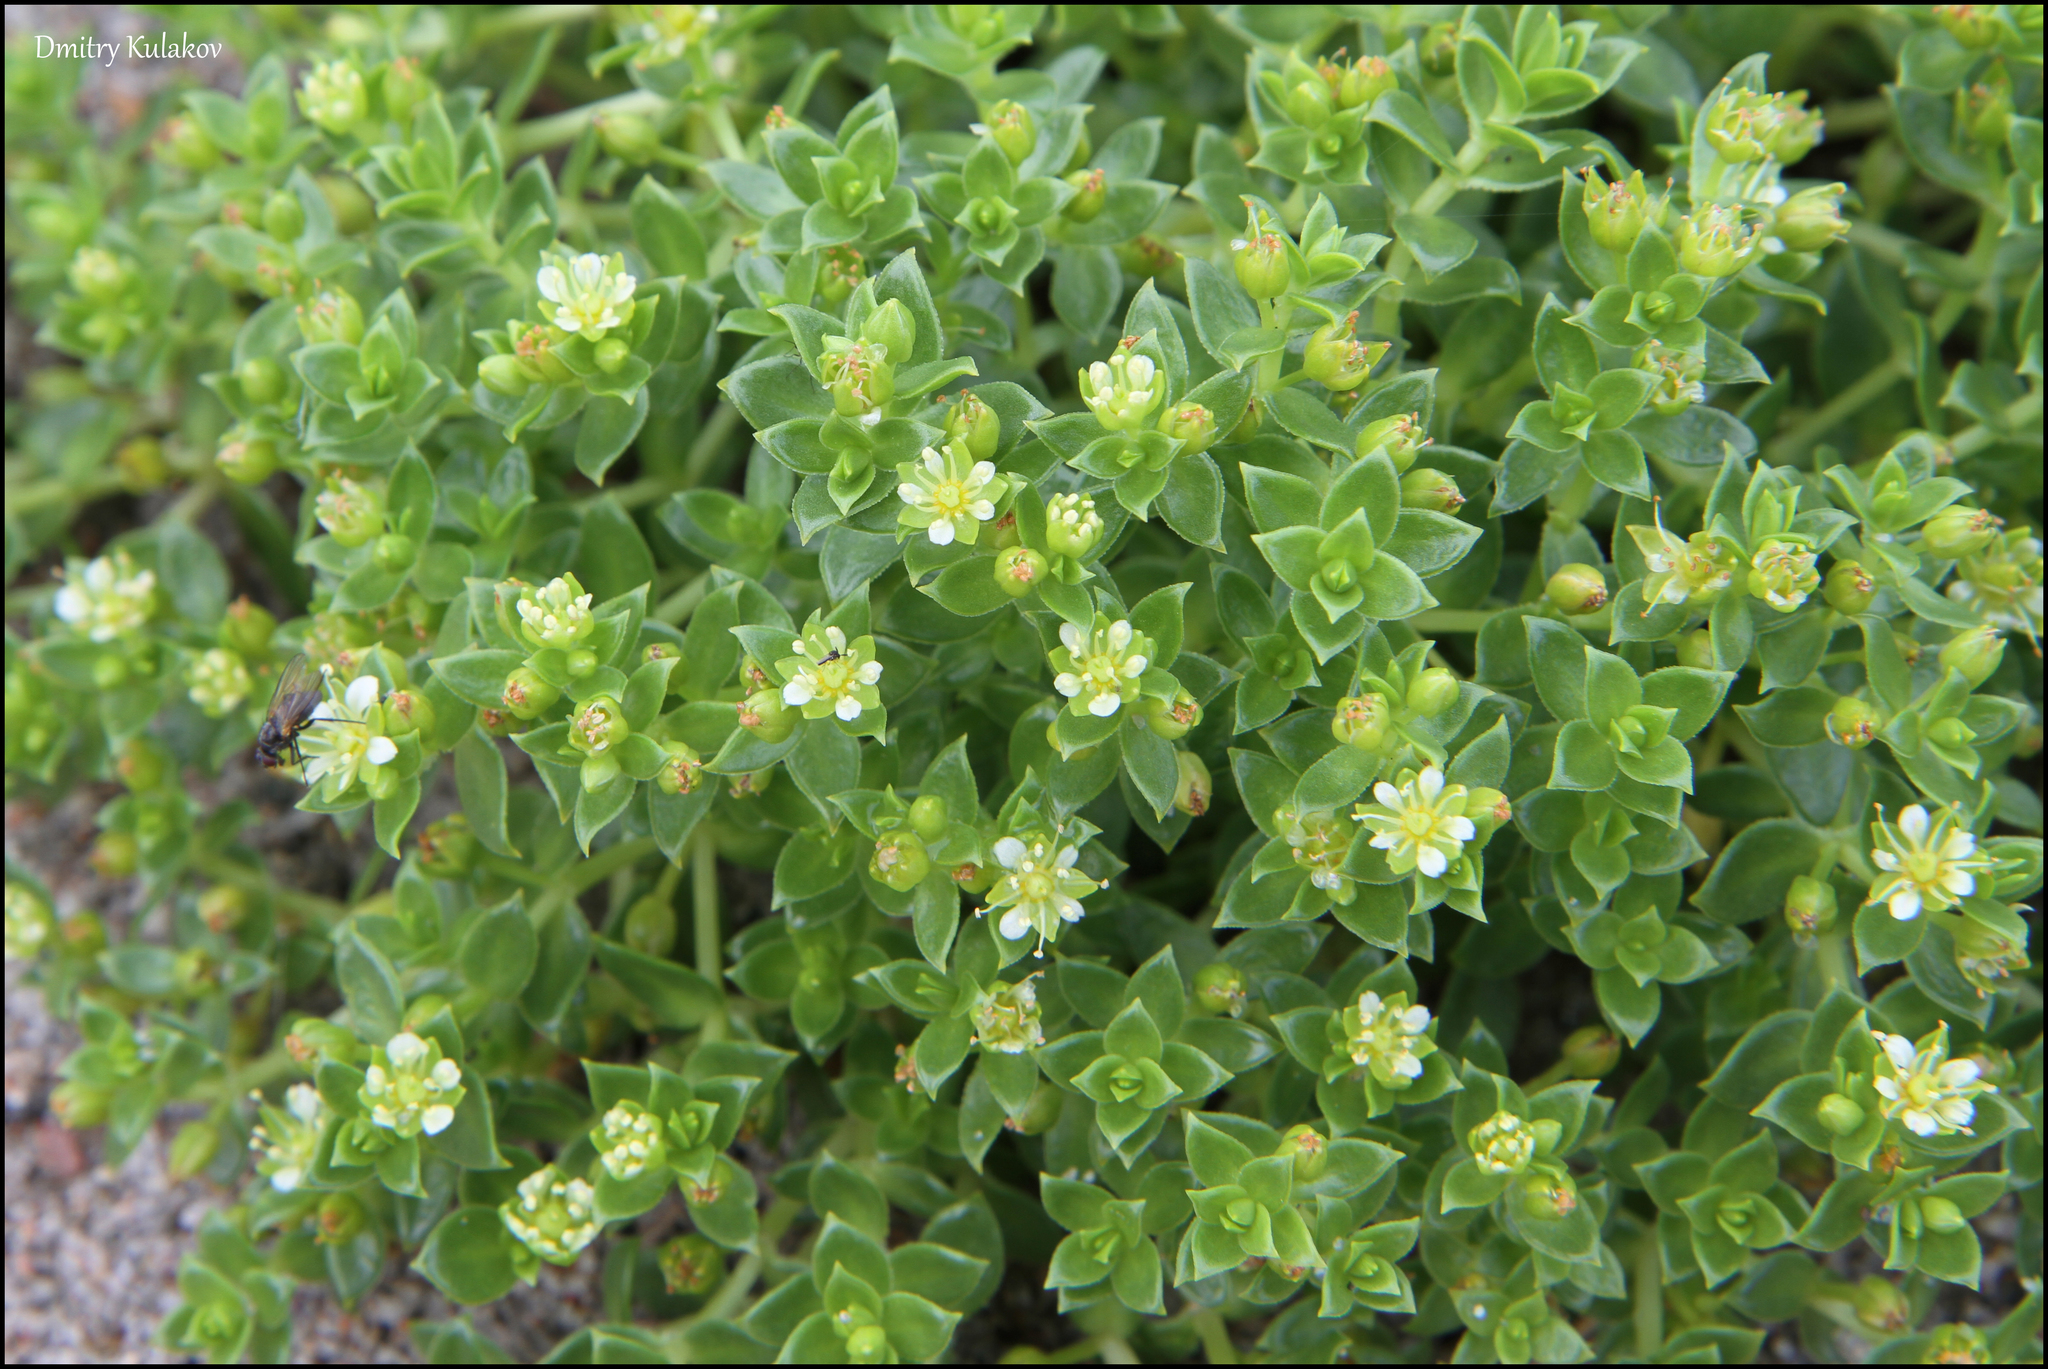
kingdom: Plantae
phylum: Tracheophyta
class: Magnoliopsida
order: Caryophyllales
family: Caryophyllaceae
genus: Honckenya
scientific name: Honckenya peploides
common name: Sea sandwort
